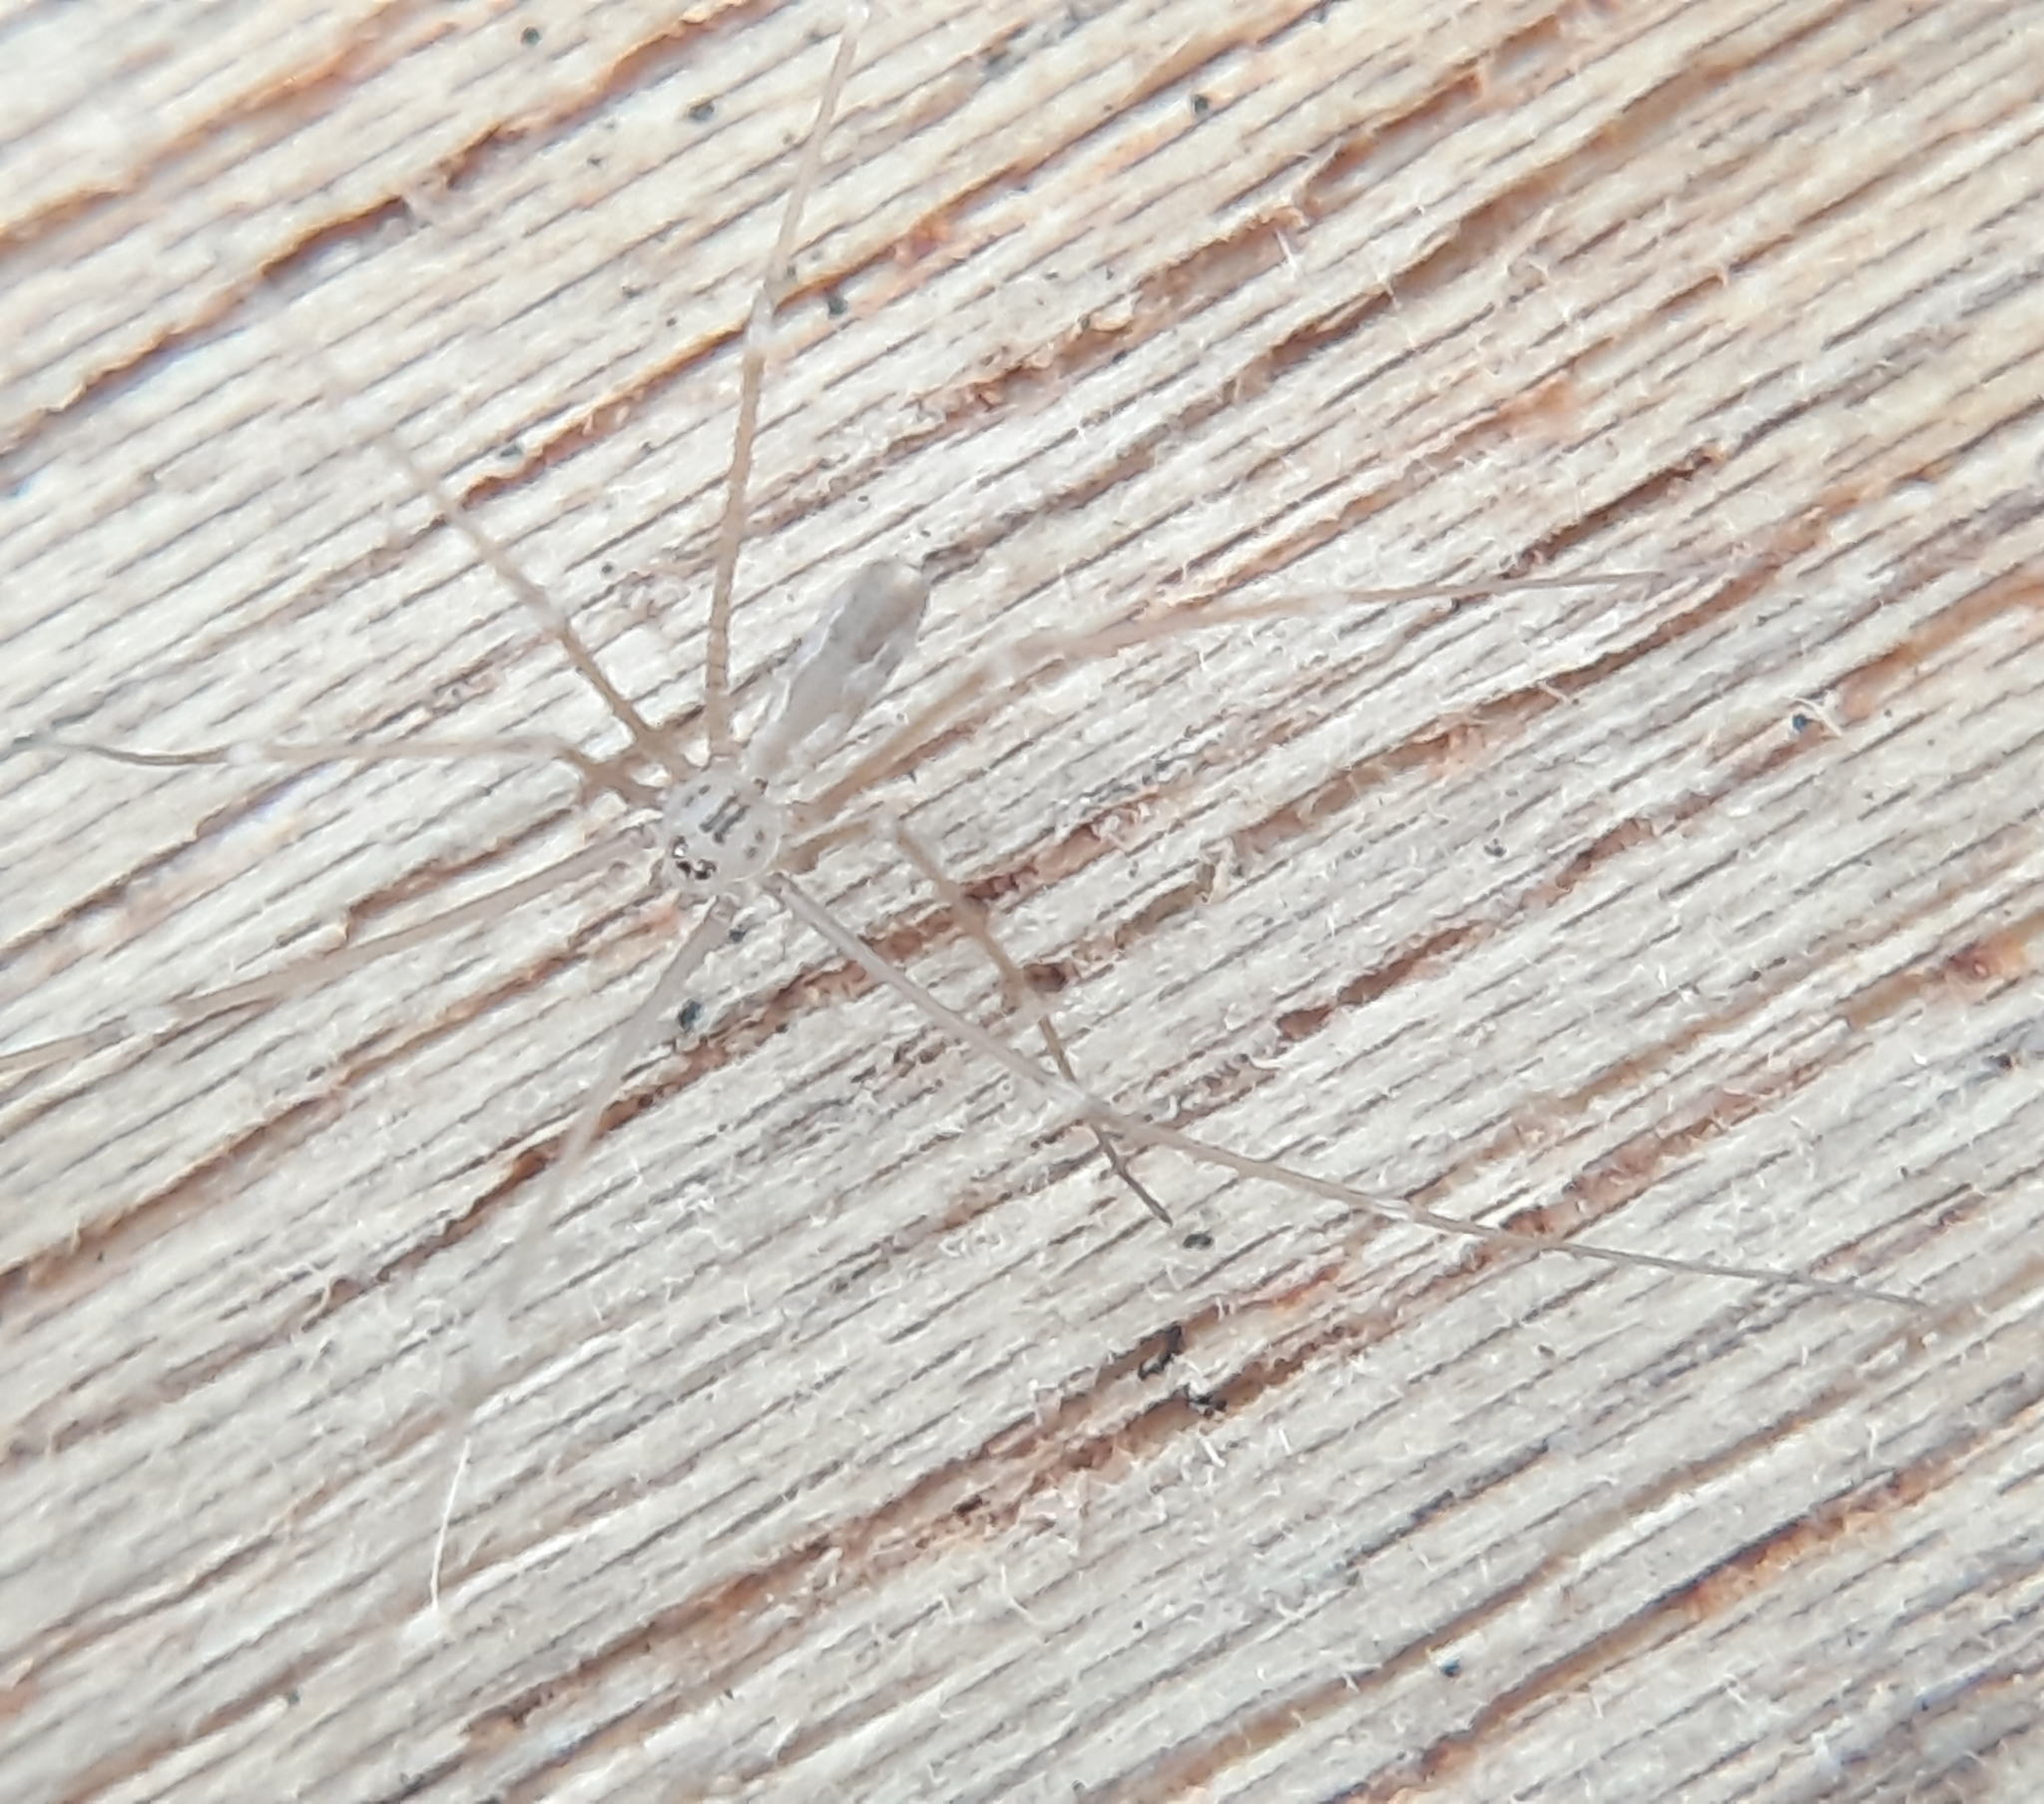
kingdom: Animalia
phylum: Arthropoda
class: Arachnida
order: Araneae
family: Pholcidae
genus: Pholcus
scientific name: Pholcus opilionoides
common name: Daddylongleg spider
